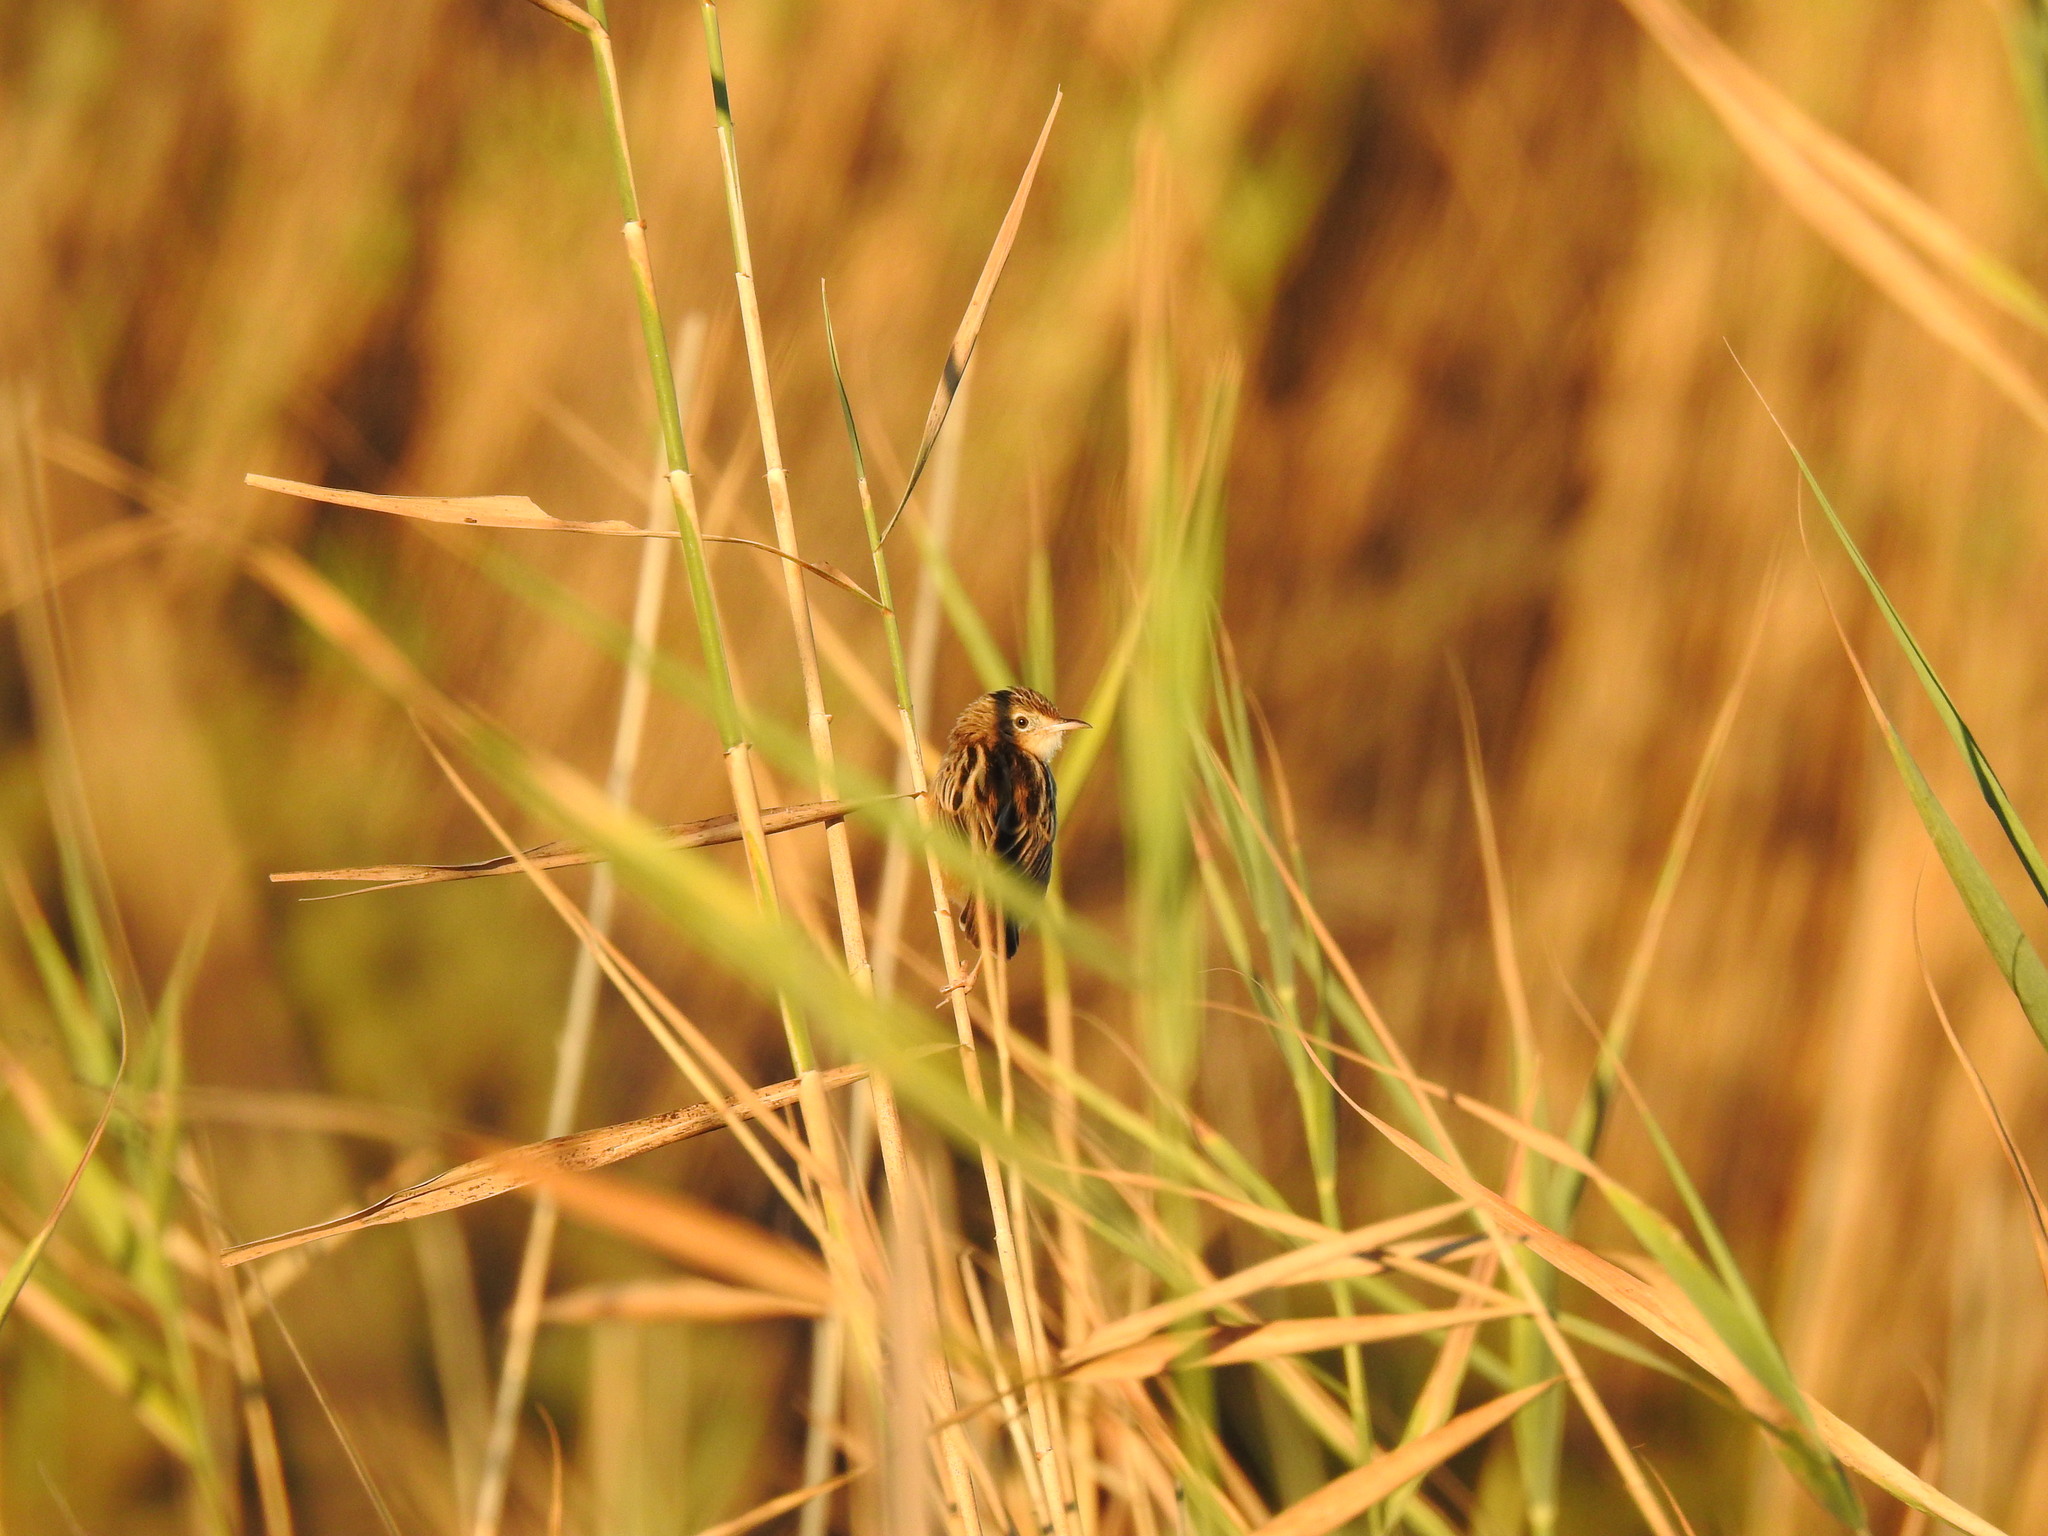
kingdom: Animalia
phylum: Chordata
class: Aves
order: Passeriformes
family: Cisticolidae
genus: Cisticola
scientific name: Cisticola juncidis
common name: Zitting cisticola
